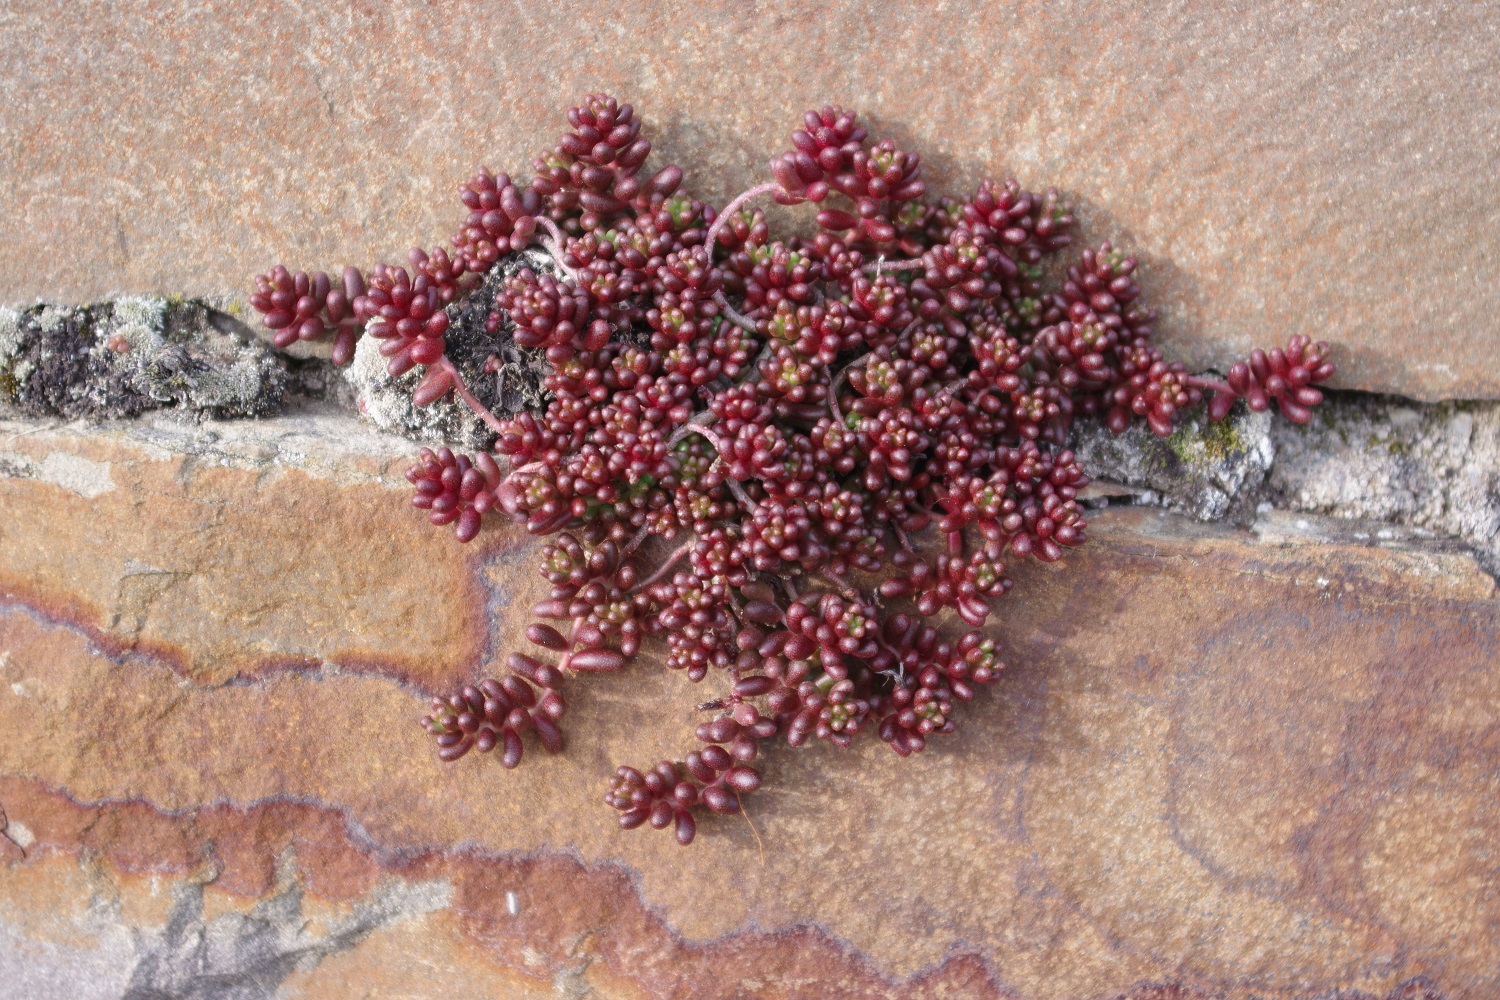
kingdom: Plantae
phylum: Tracheophyta
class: Magnoliopsida
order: Saxifragales
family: Crassulaceae
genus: Sedum
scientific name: Sedum album
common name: White stonecrop
